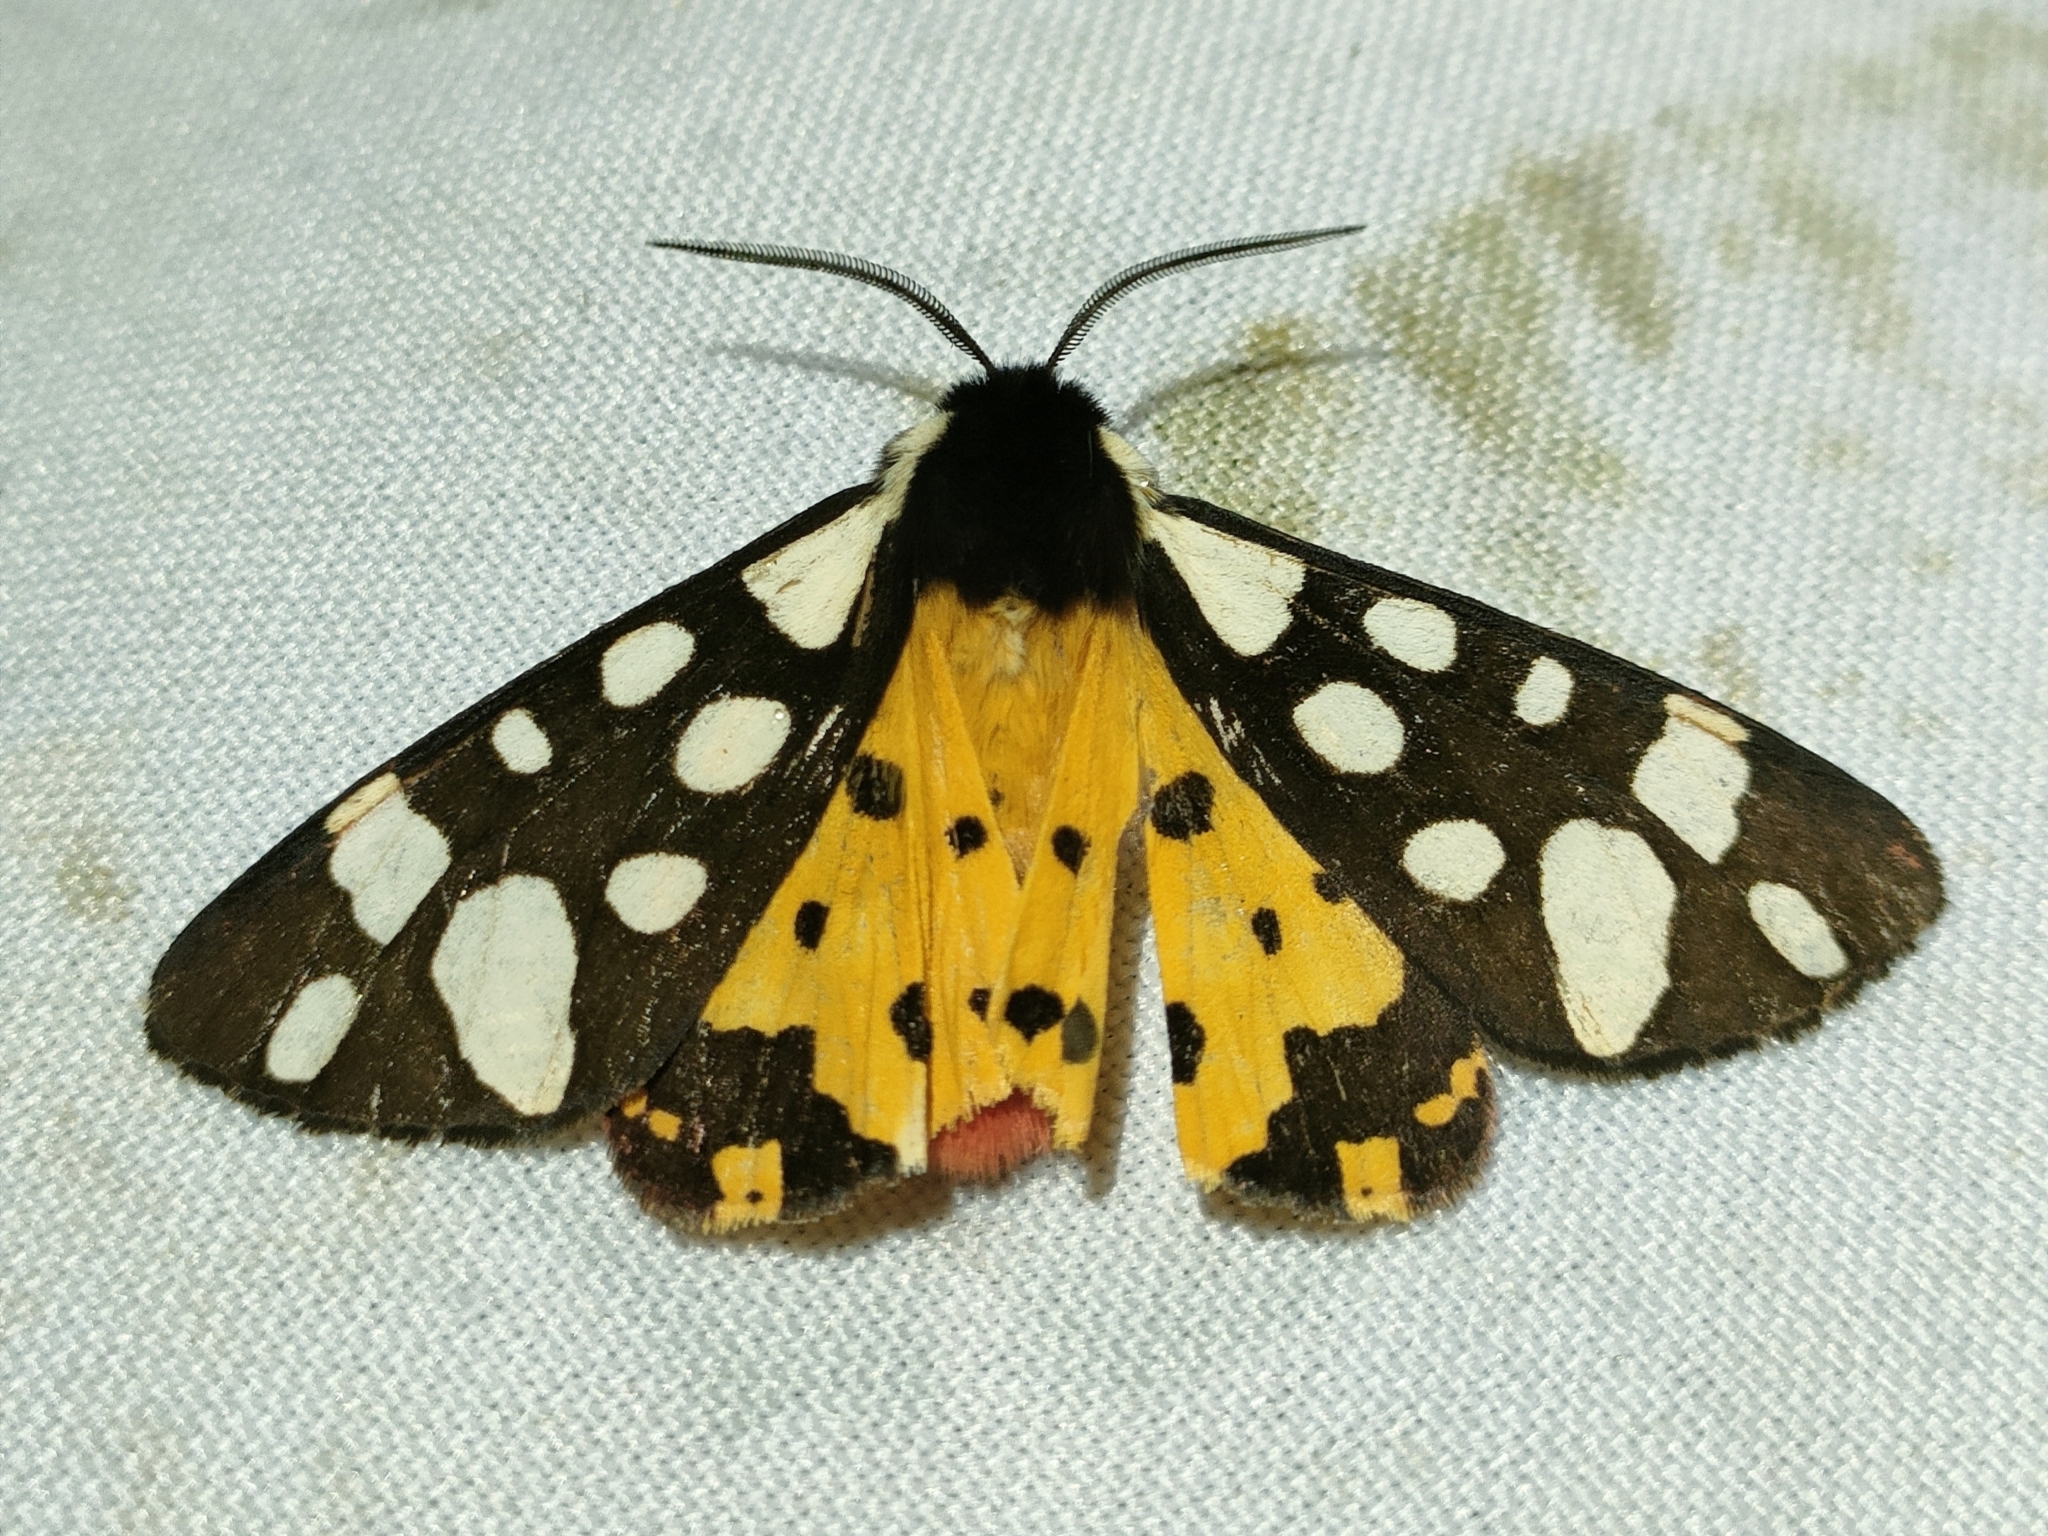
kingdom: Animalia
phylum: Arthropoda
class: Insecta
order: Lepidoptera
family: Erebidae
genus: Epicallia
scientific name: Epicallia villica
